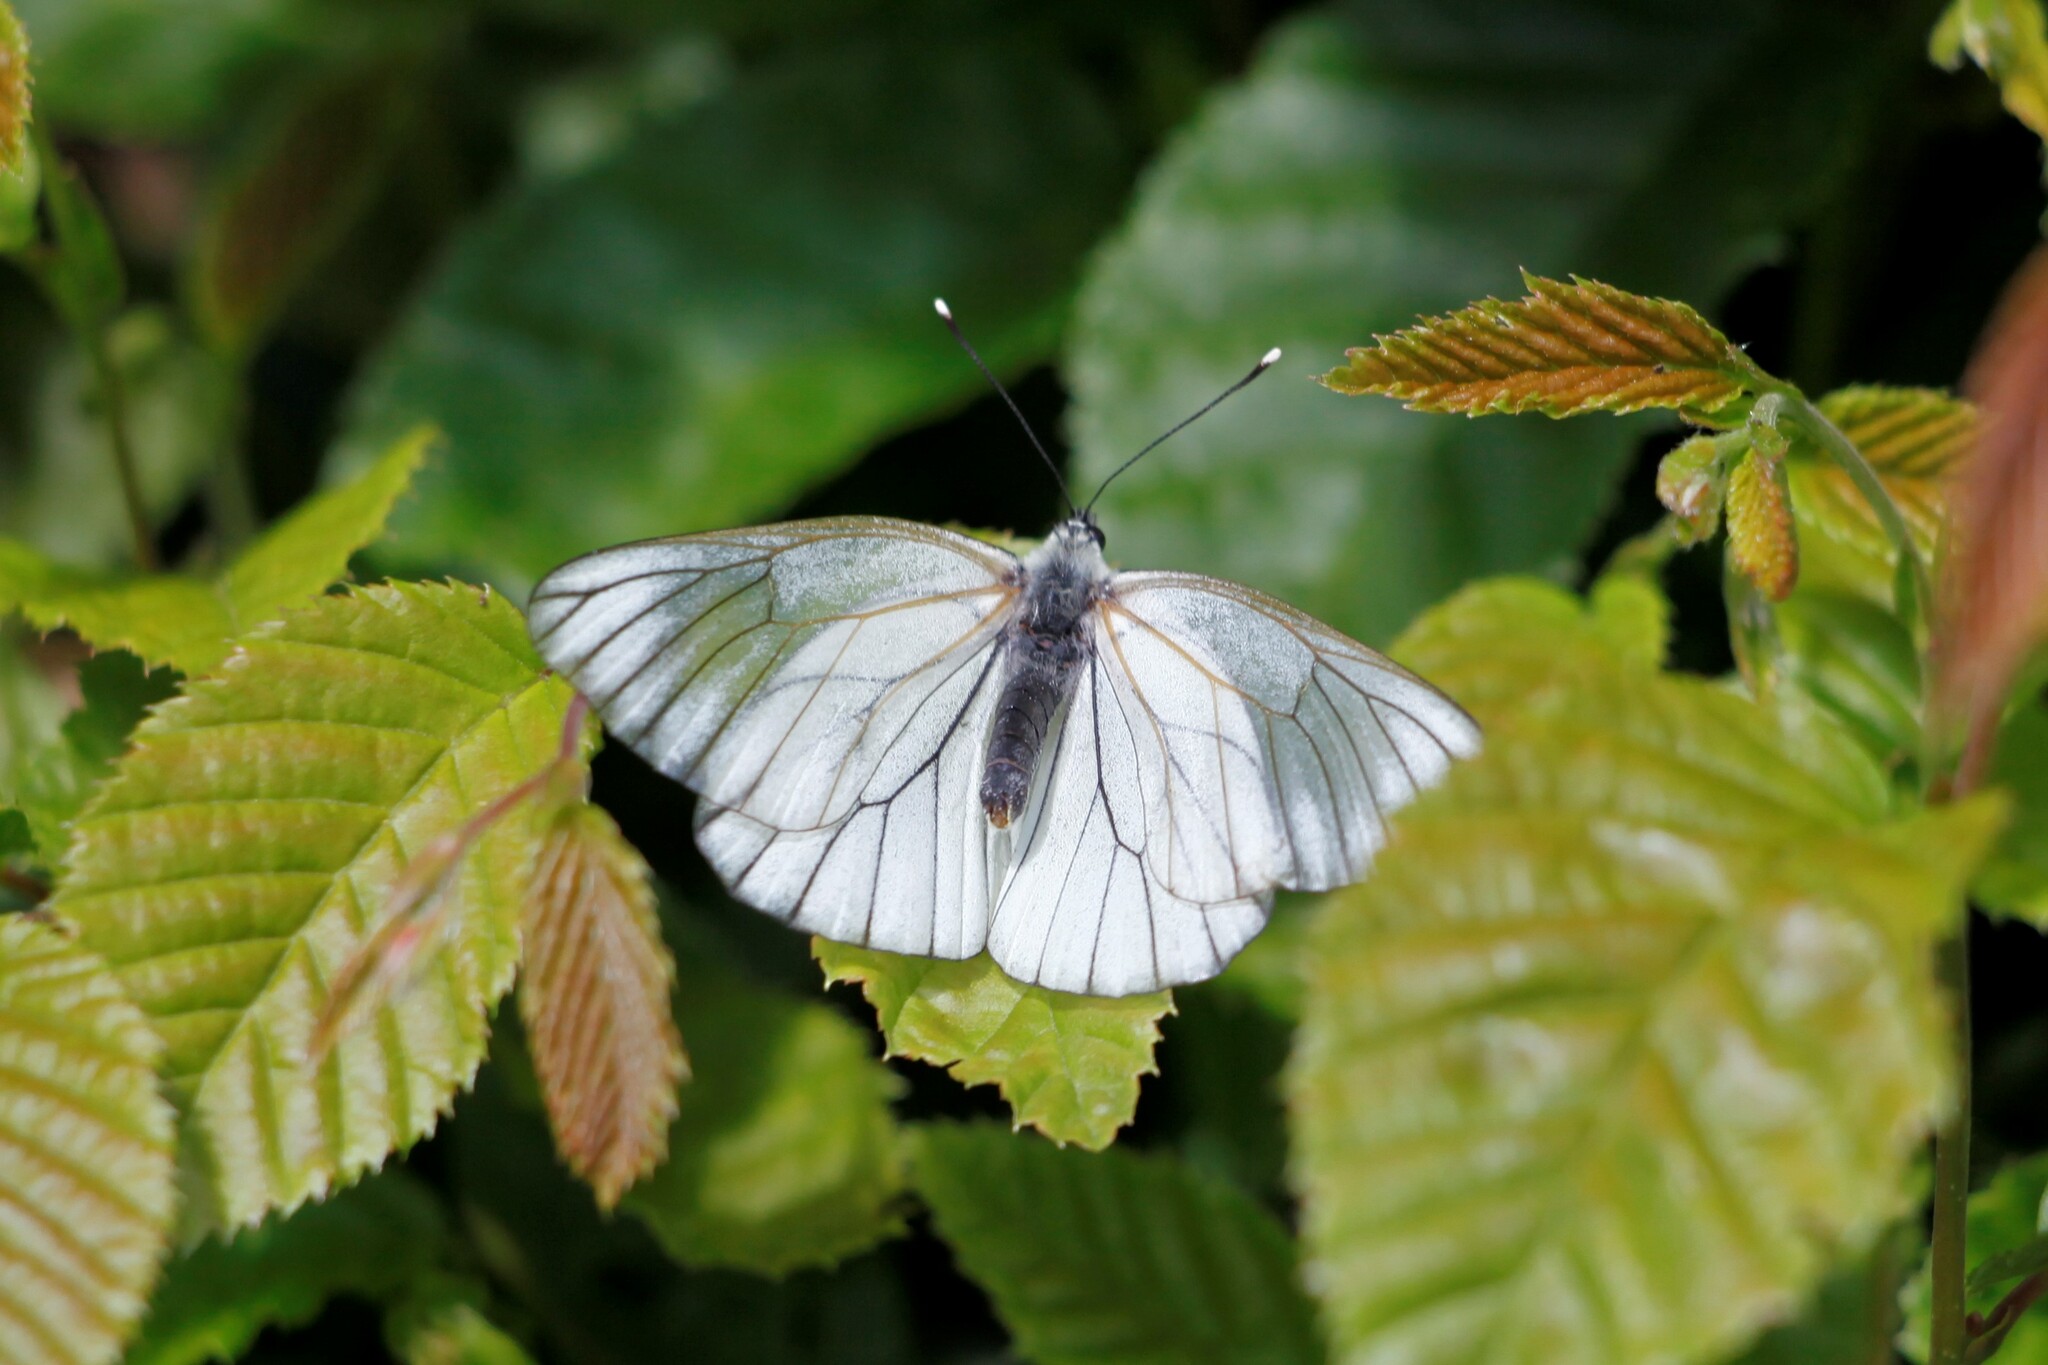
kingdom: Animalia
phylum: Arthropoda
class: Insecta
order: Lepidoptera
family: Pieridae
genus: Aporia
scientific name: Aporia crataegi
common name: Black-veined white
